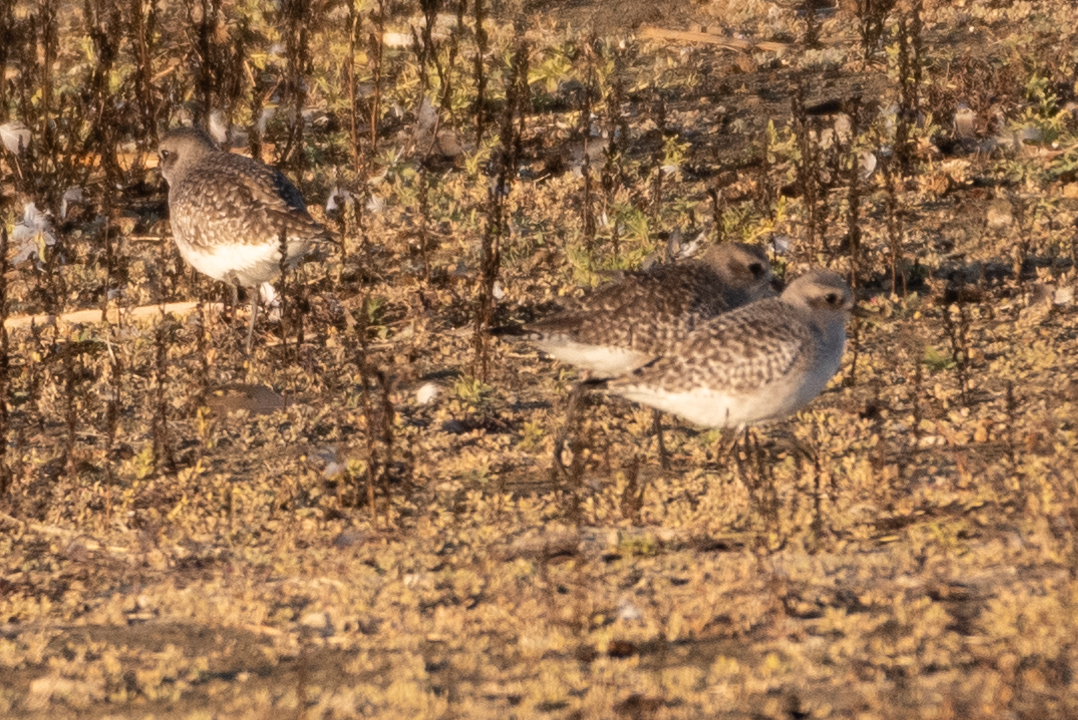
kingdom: Animalia
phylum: Chordata
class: Aves
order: Charadriiformes
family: Charadriidae
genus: Pluvialis
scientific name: Pluvialis squatarola
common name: Grey plover
